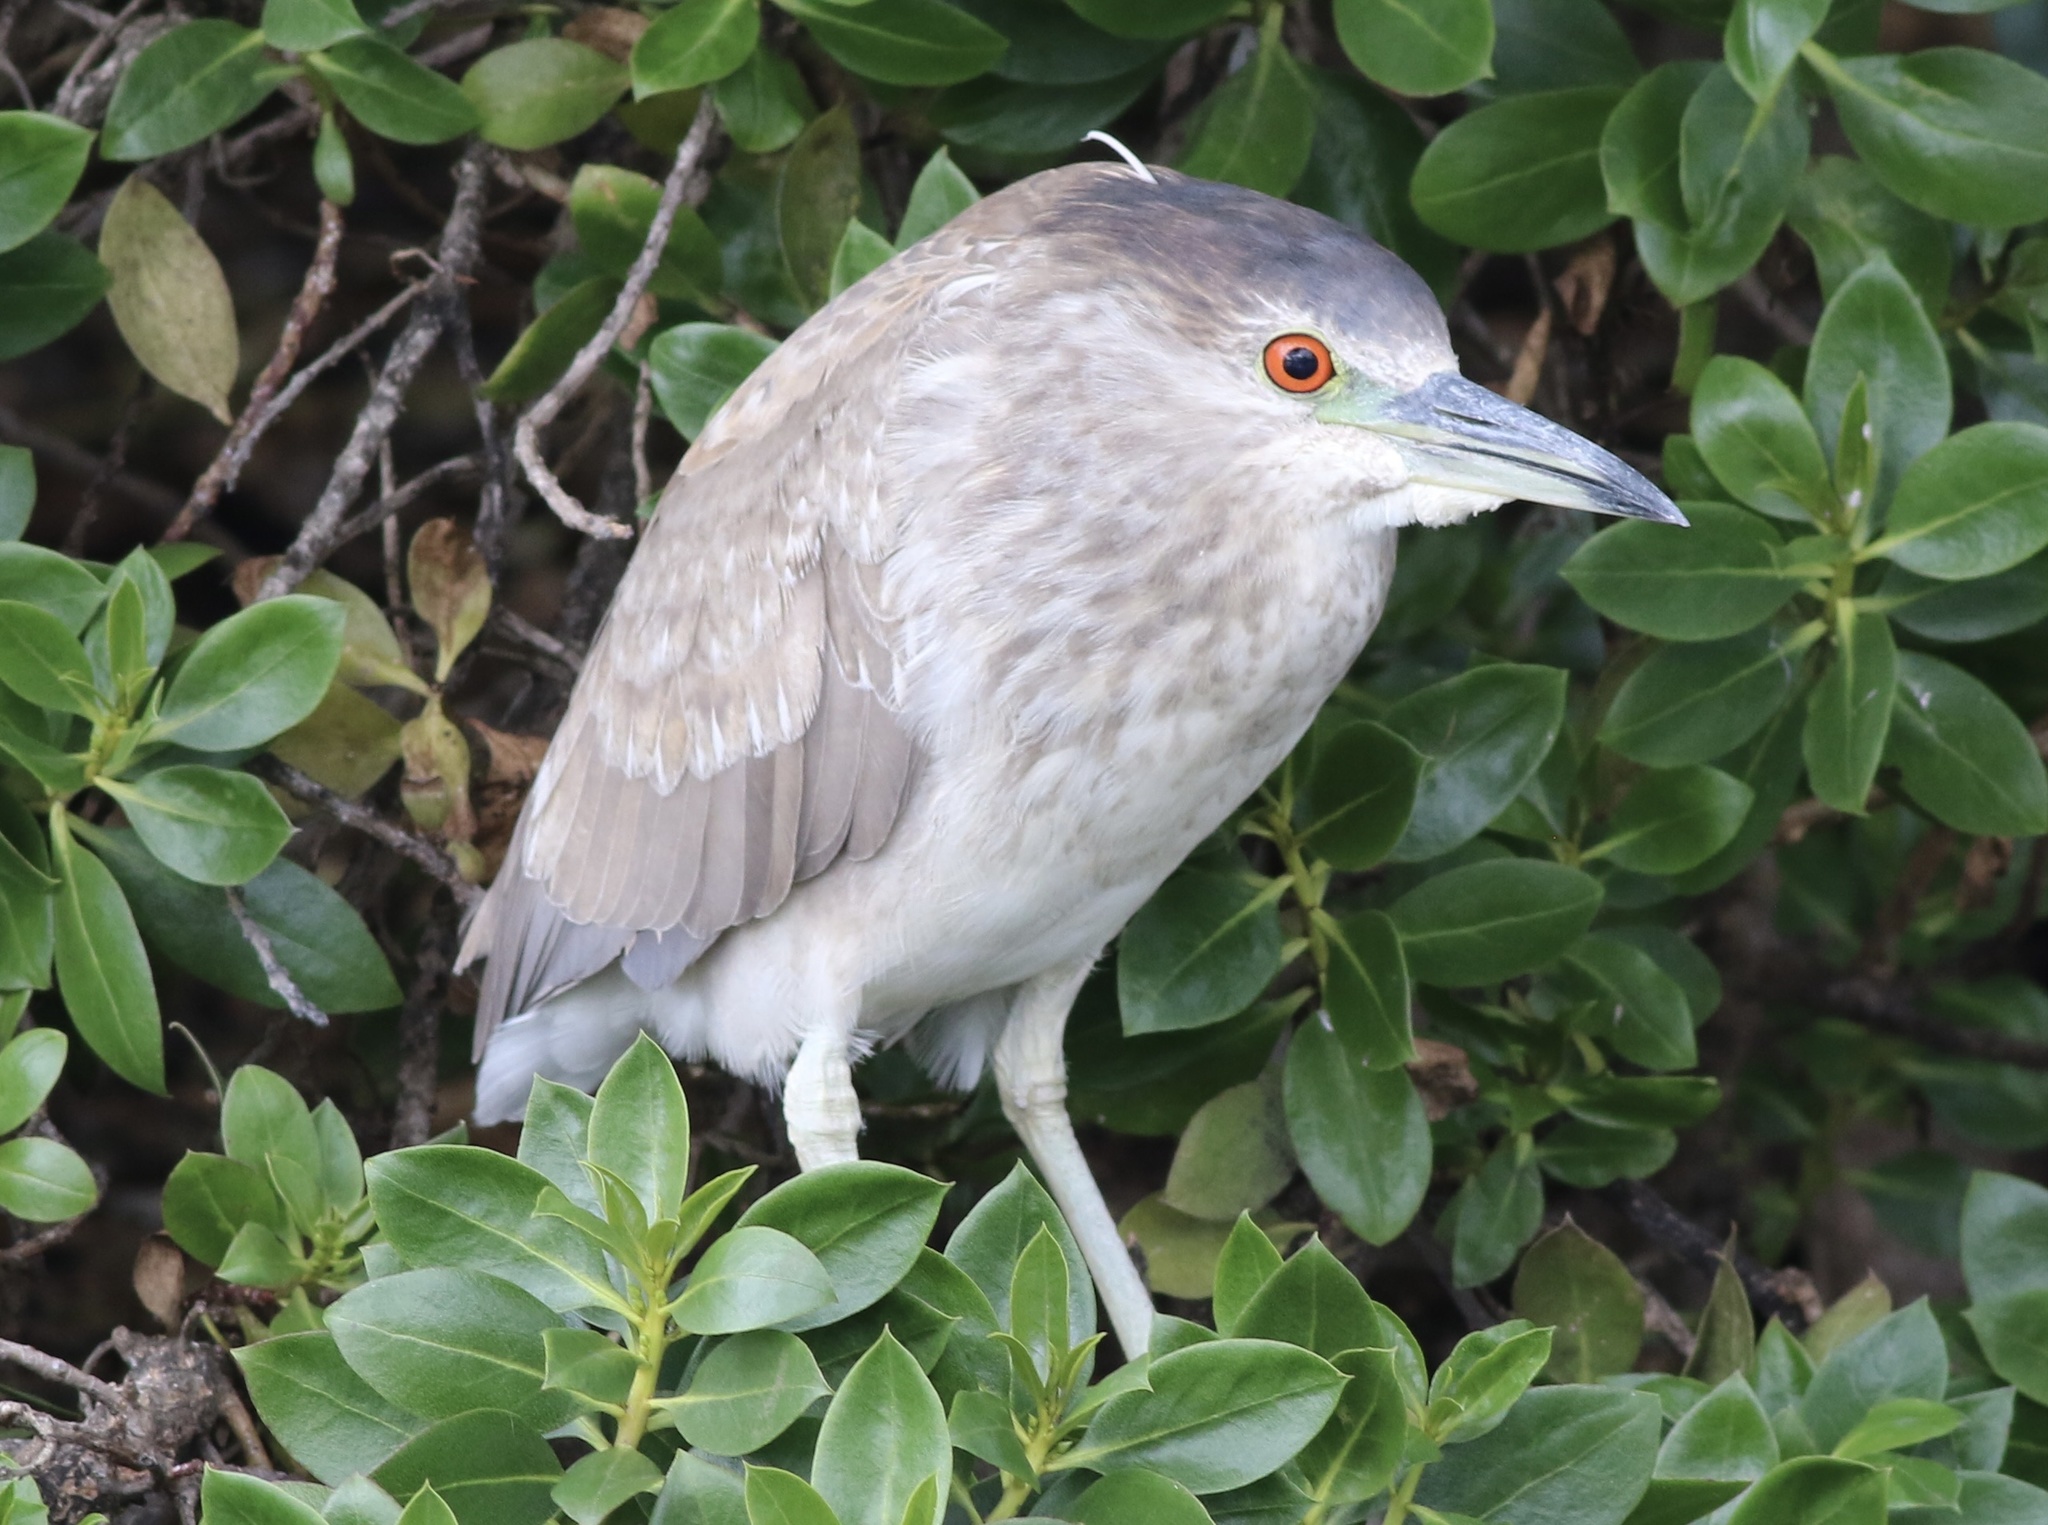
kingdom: Animalia
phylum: Chordata
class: Aves
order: Pelecaniformes
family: Ardeidae
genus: Nycticorax
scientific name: Nycticorax nycticorax
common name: Black-crowned night heron
